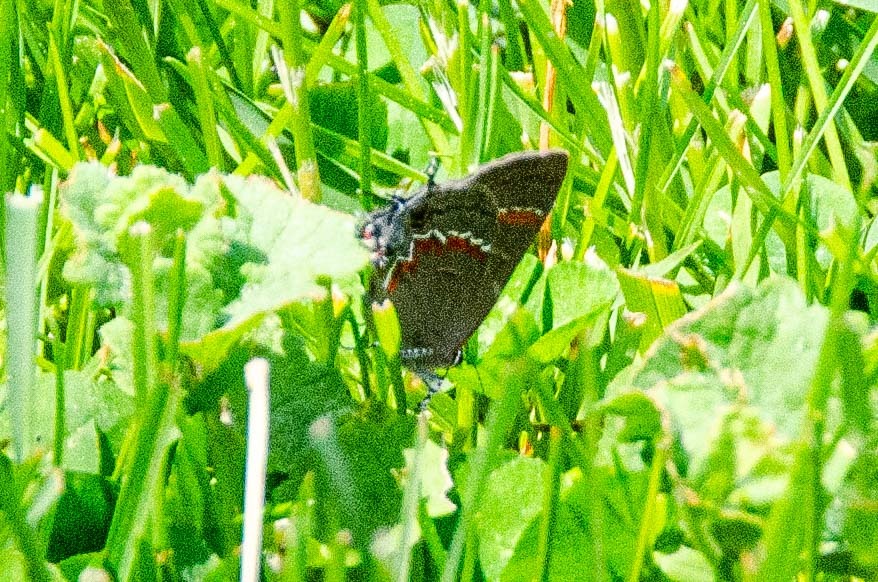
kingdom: Animalia
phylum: Arthropoda
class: Insecta
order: Lepidoptera
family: Lycaenidae
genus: Calycopis
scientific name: Calycopis cecrops
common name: Red-banded hairstreak
